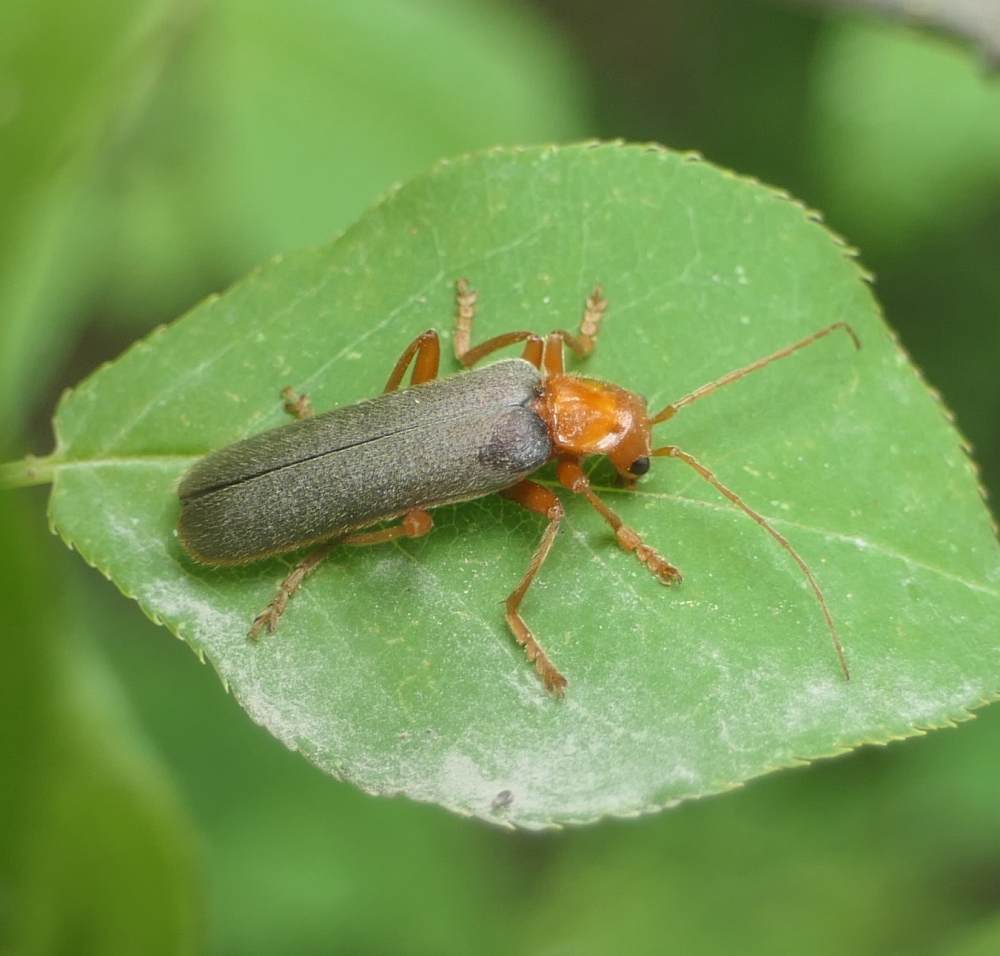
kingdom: Animalia
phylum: Arthropoda
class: Insecta
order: Coleoptera
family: Cantharidae
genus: Pacificanthia
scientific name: Pacificanthia rotundicollis
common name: Brown leatherwing beetle
